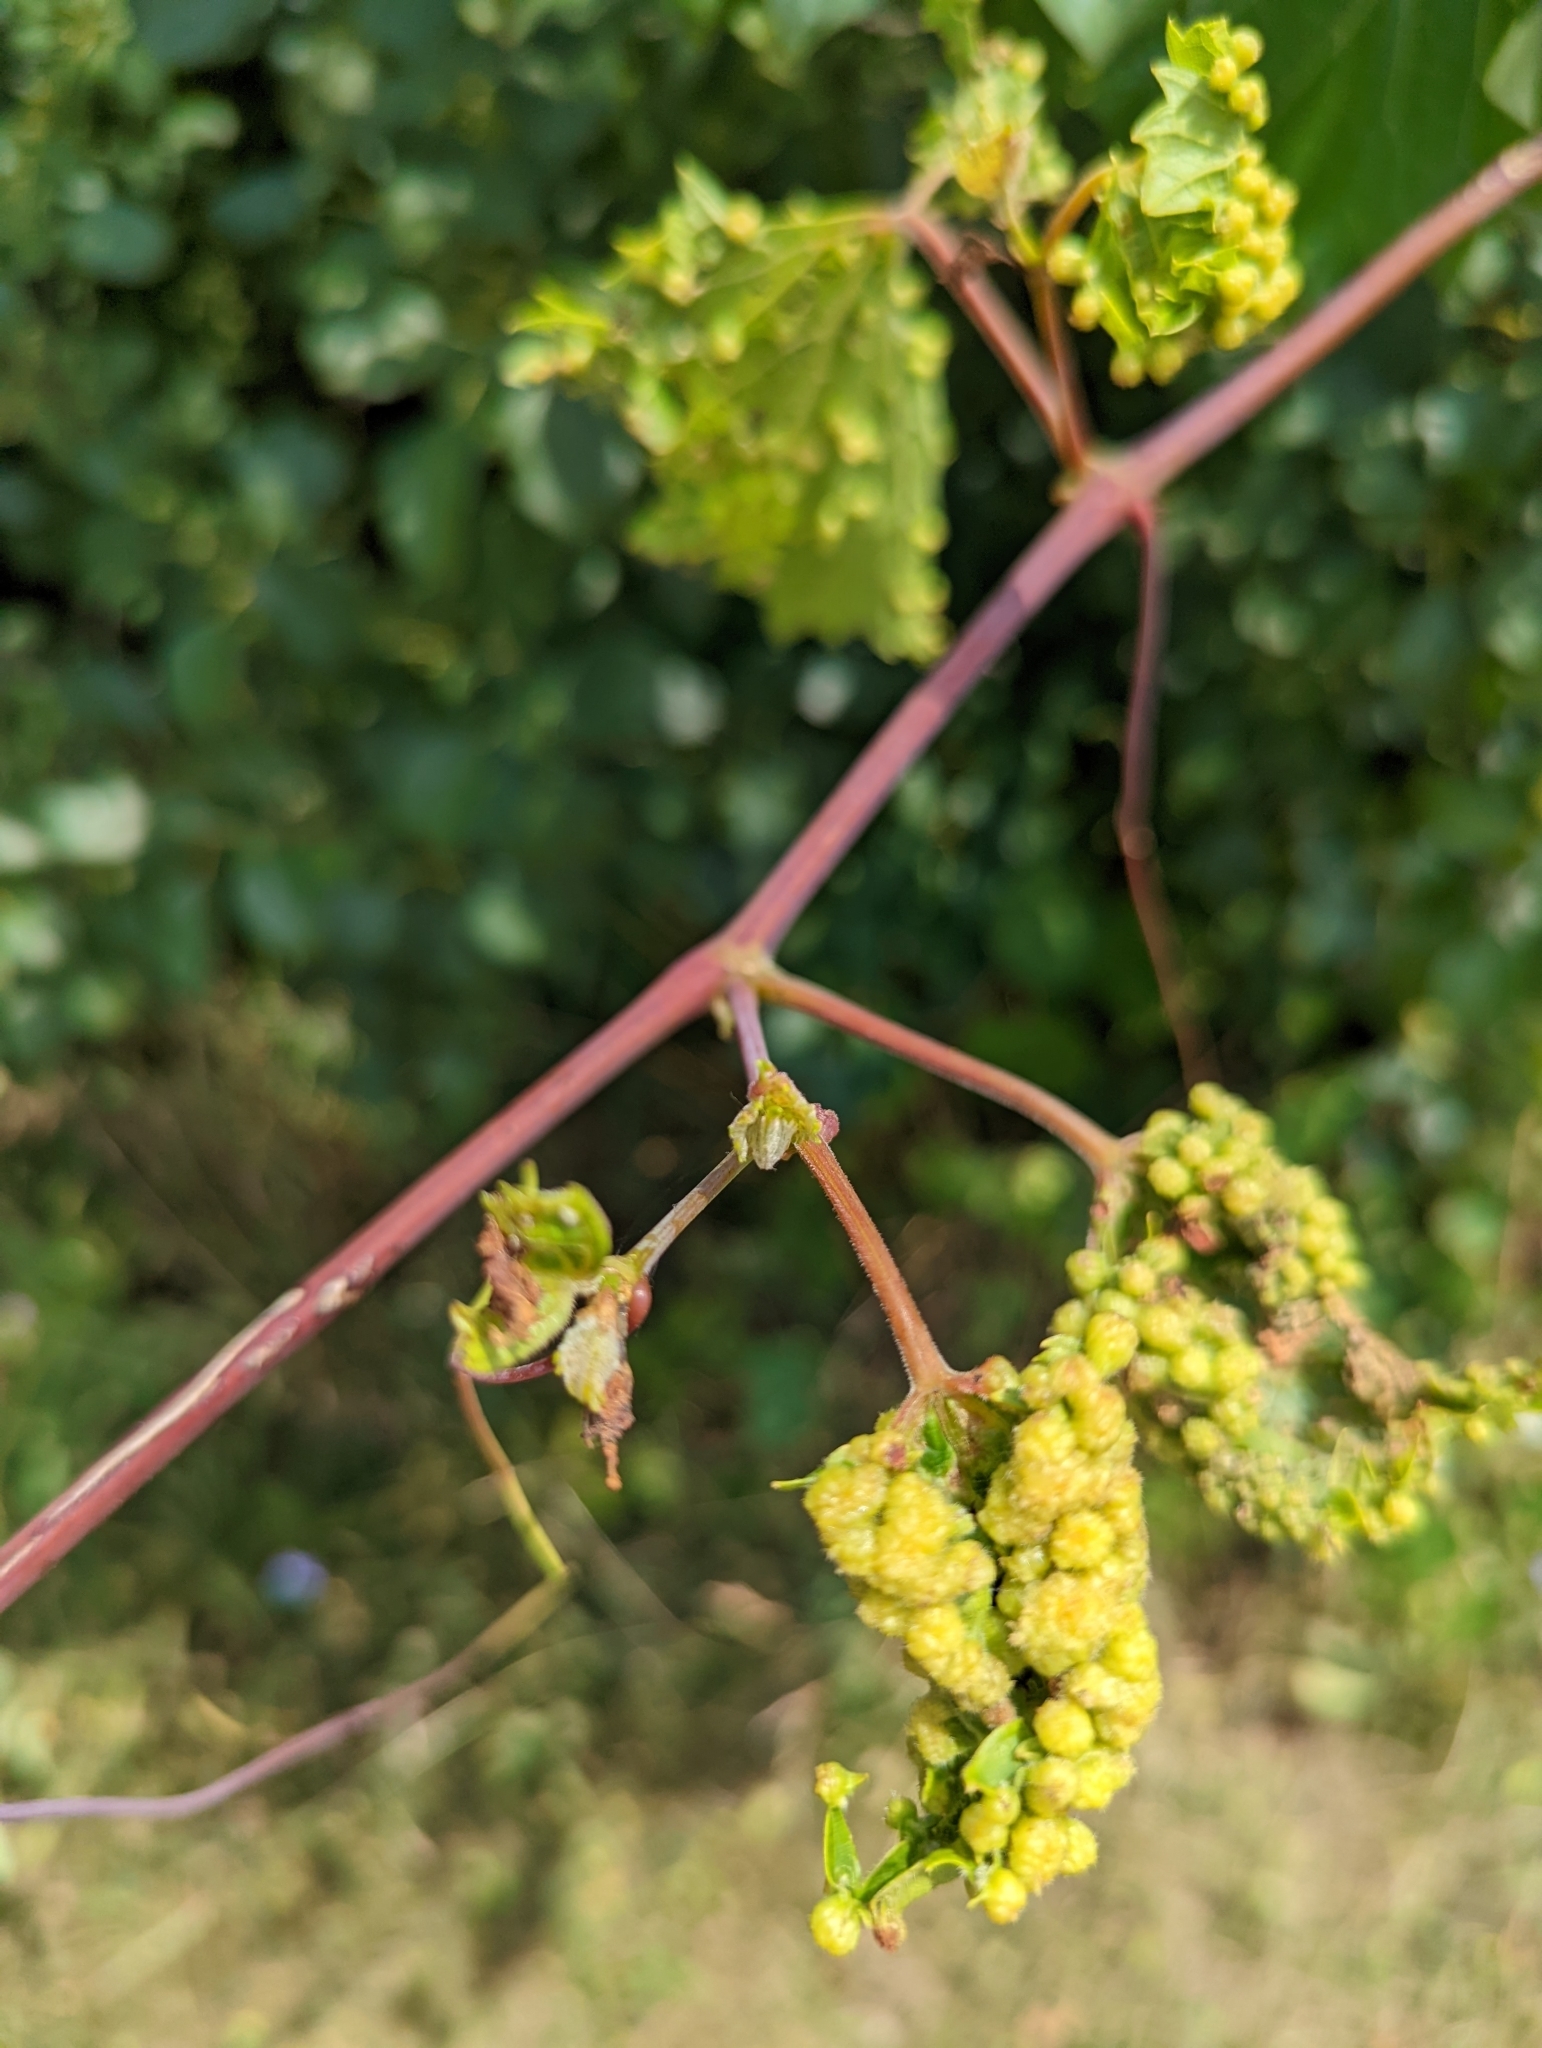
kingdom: Animalia
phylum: Arthropoda
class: Insecta
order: Hemiptera
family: Phylloxeridae
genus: Daktulosphaira
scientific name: Daktulosphaira vitifoliae
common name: Grape phylloxera
